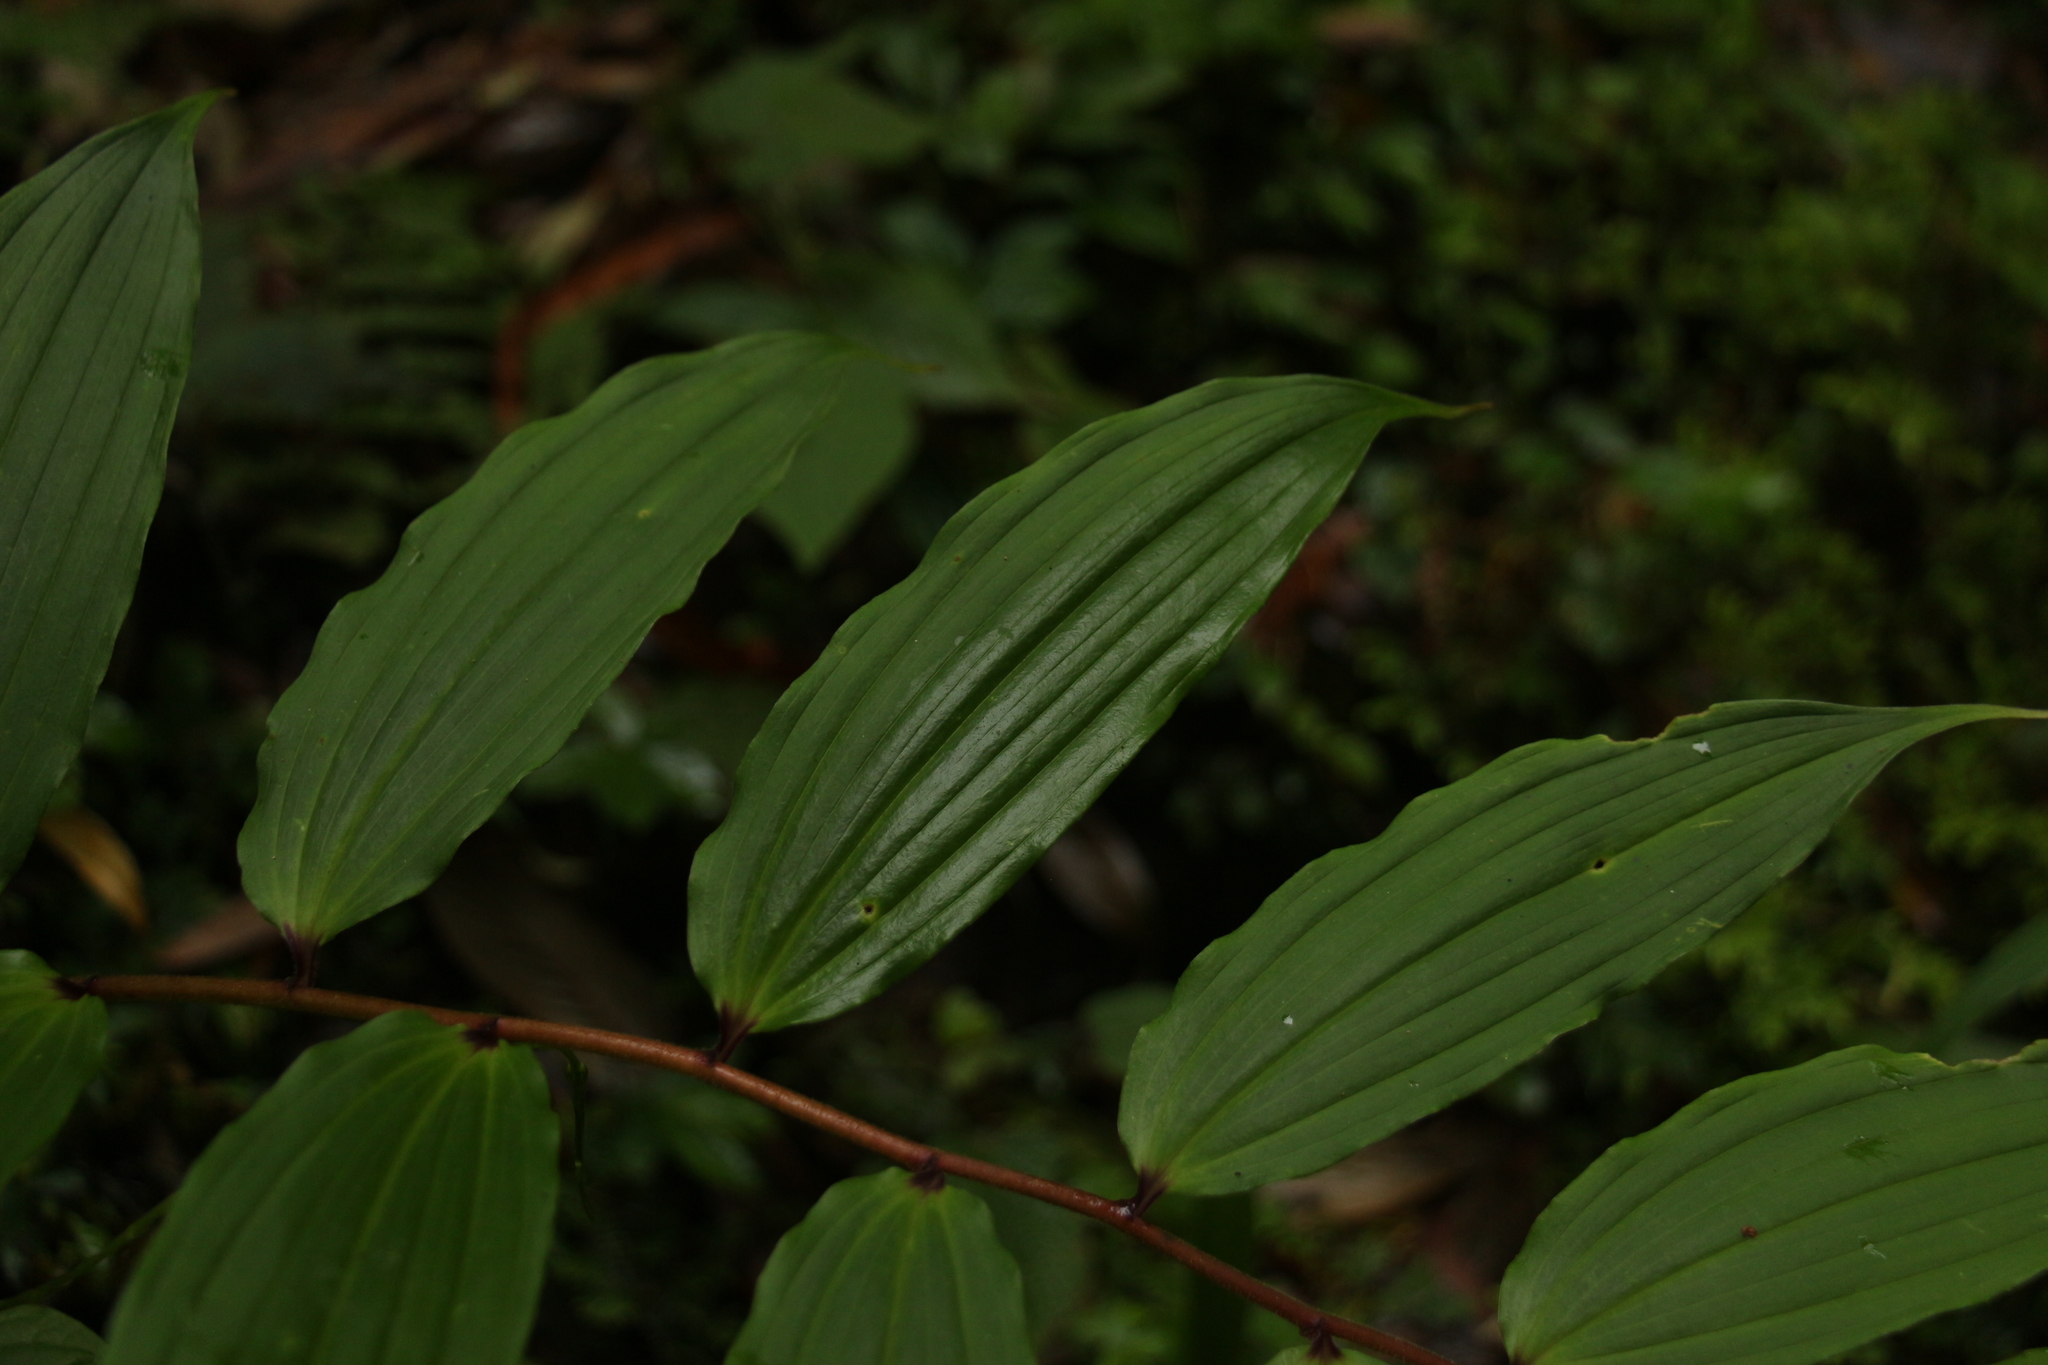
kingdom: Plantae
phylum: Tracheophyta
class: Liliopsida
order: Asparagales
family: Asparagaceae
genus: Maianthemum
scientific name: Maianthemum oleraceum
